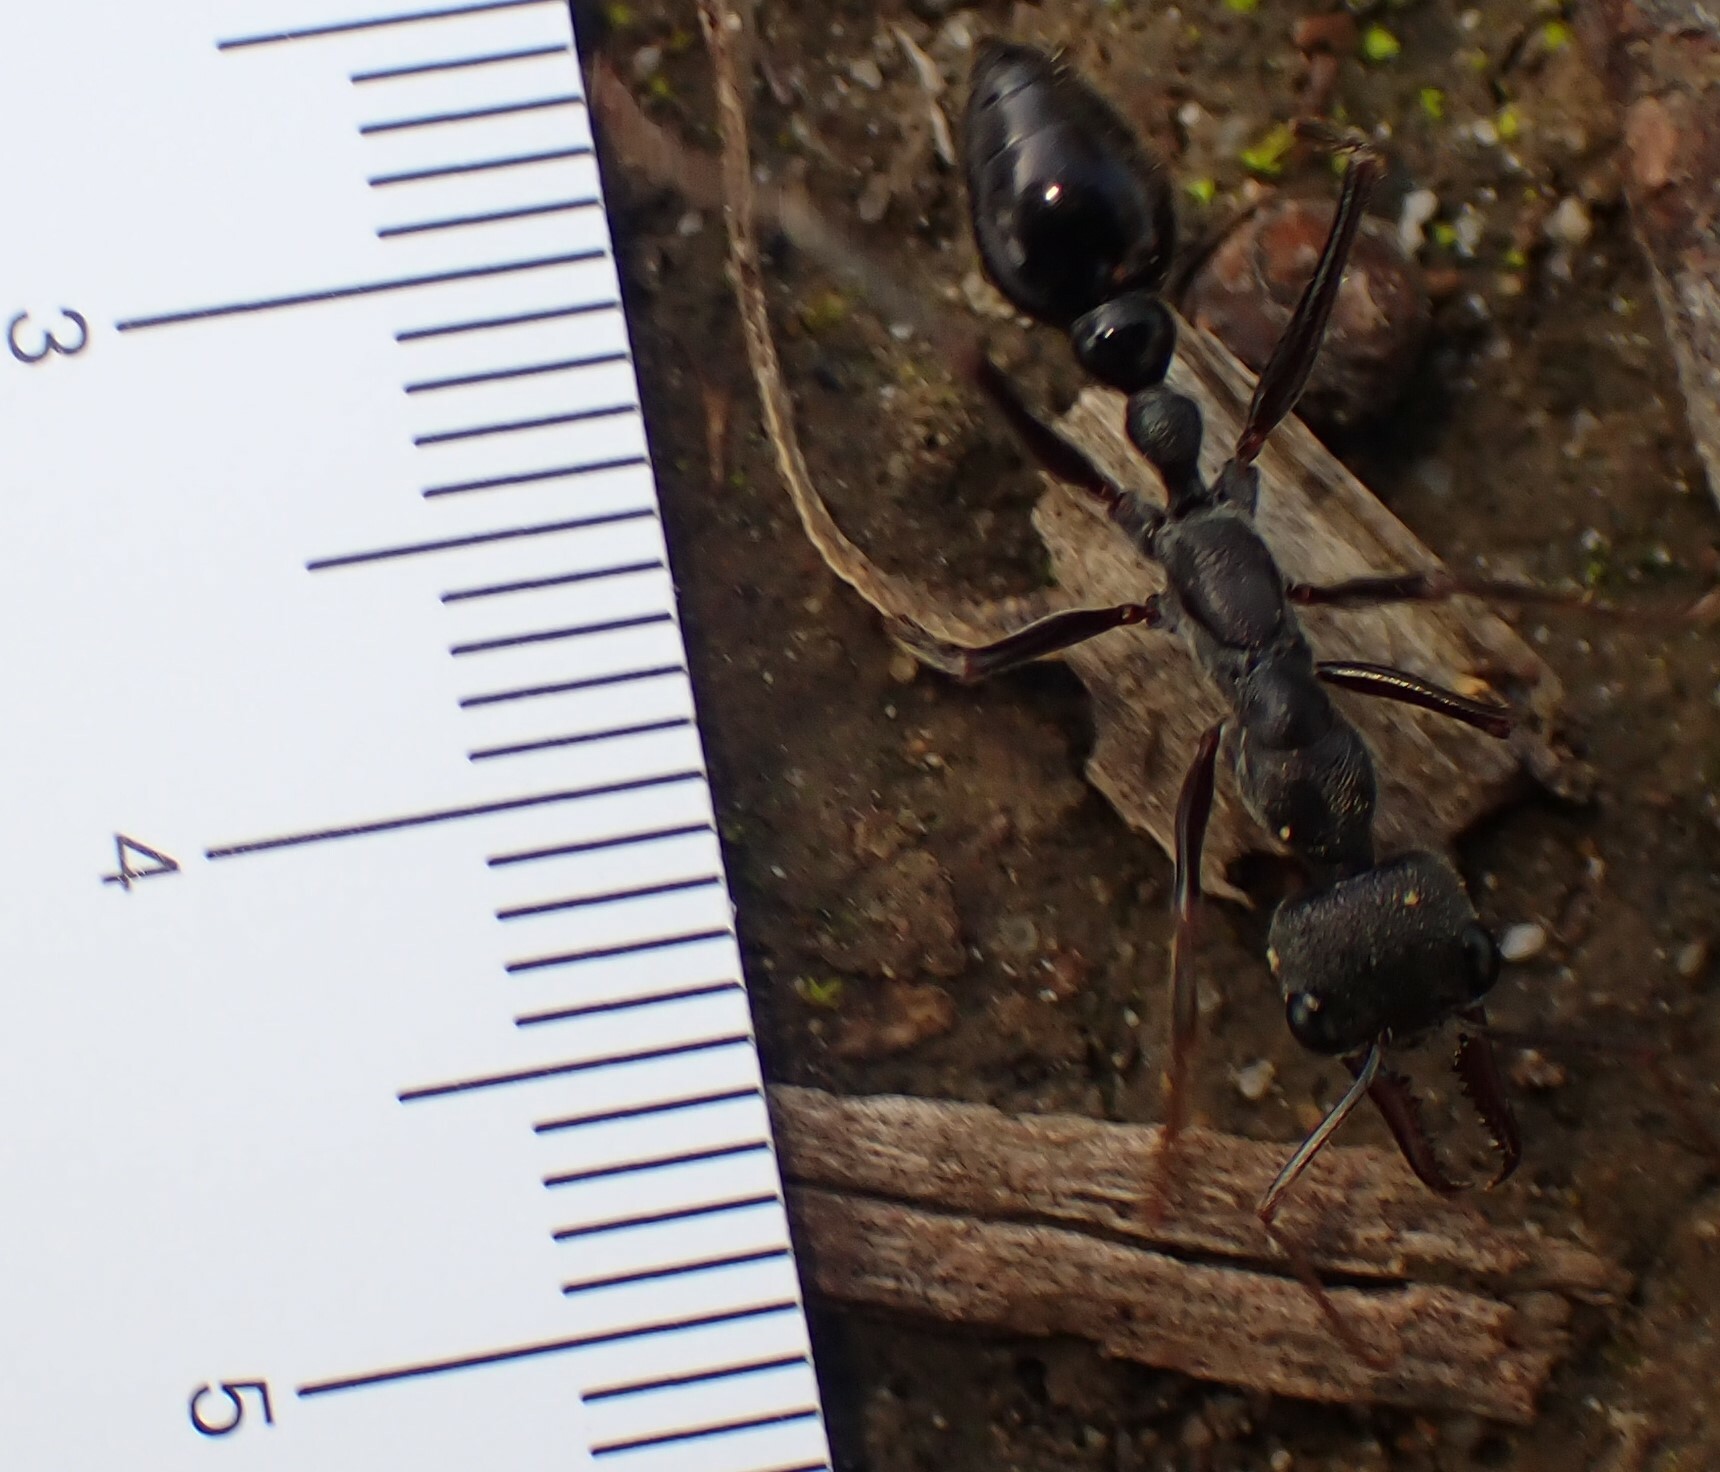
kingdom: Animalia
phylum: Arthropoda
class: Insecta
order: Hymenoptera
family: Formicidae
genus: Myrmecia
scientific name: Myrmecia pyriformis
